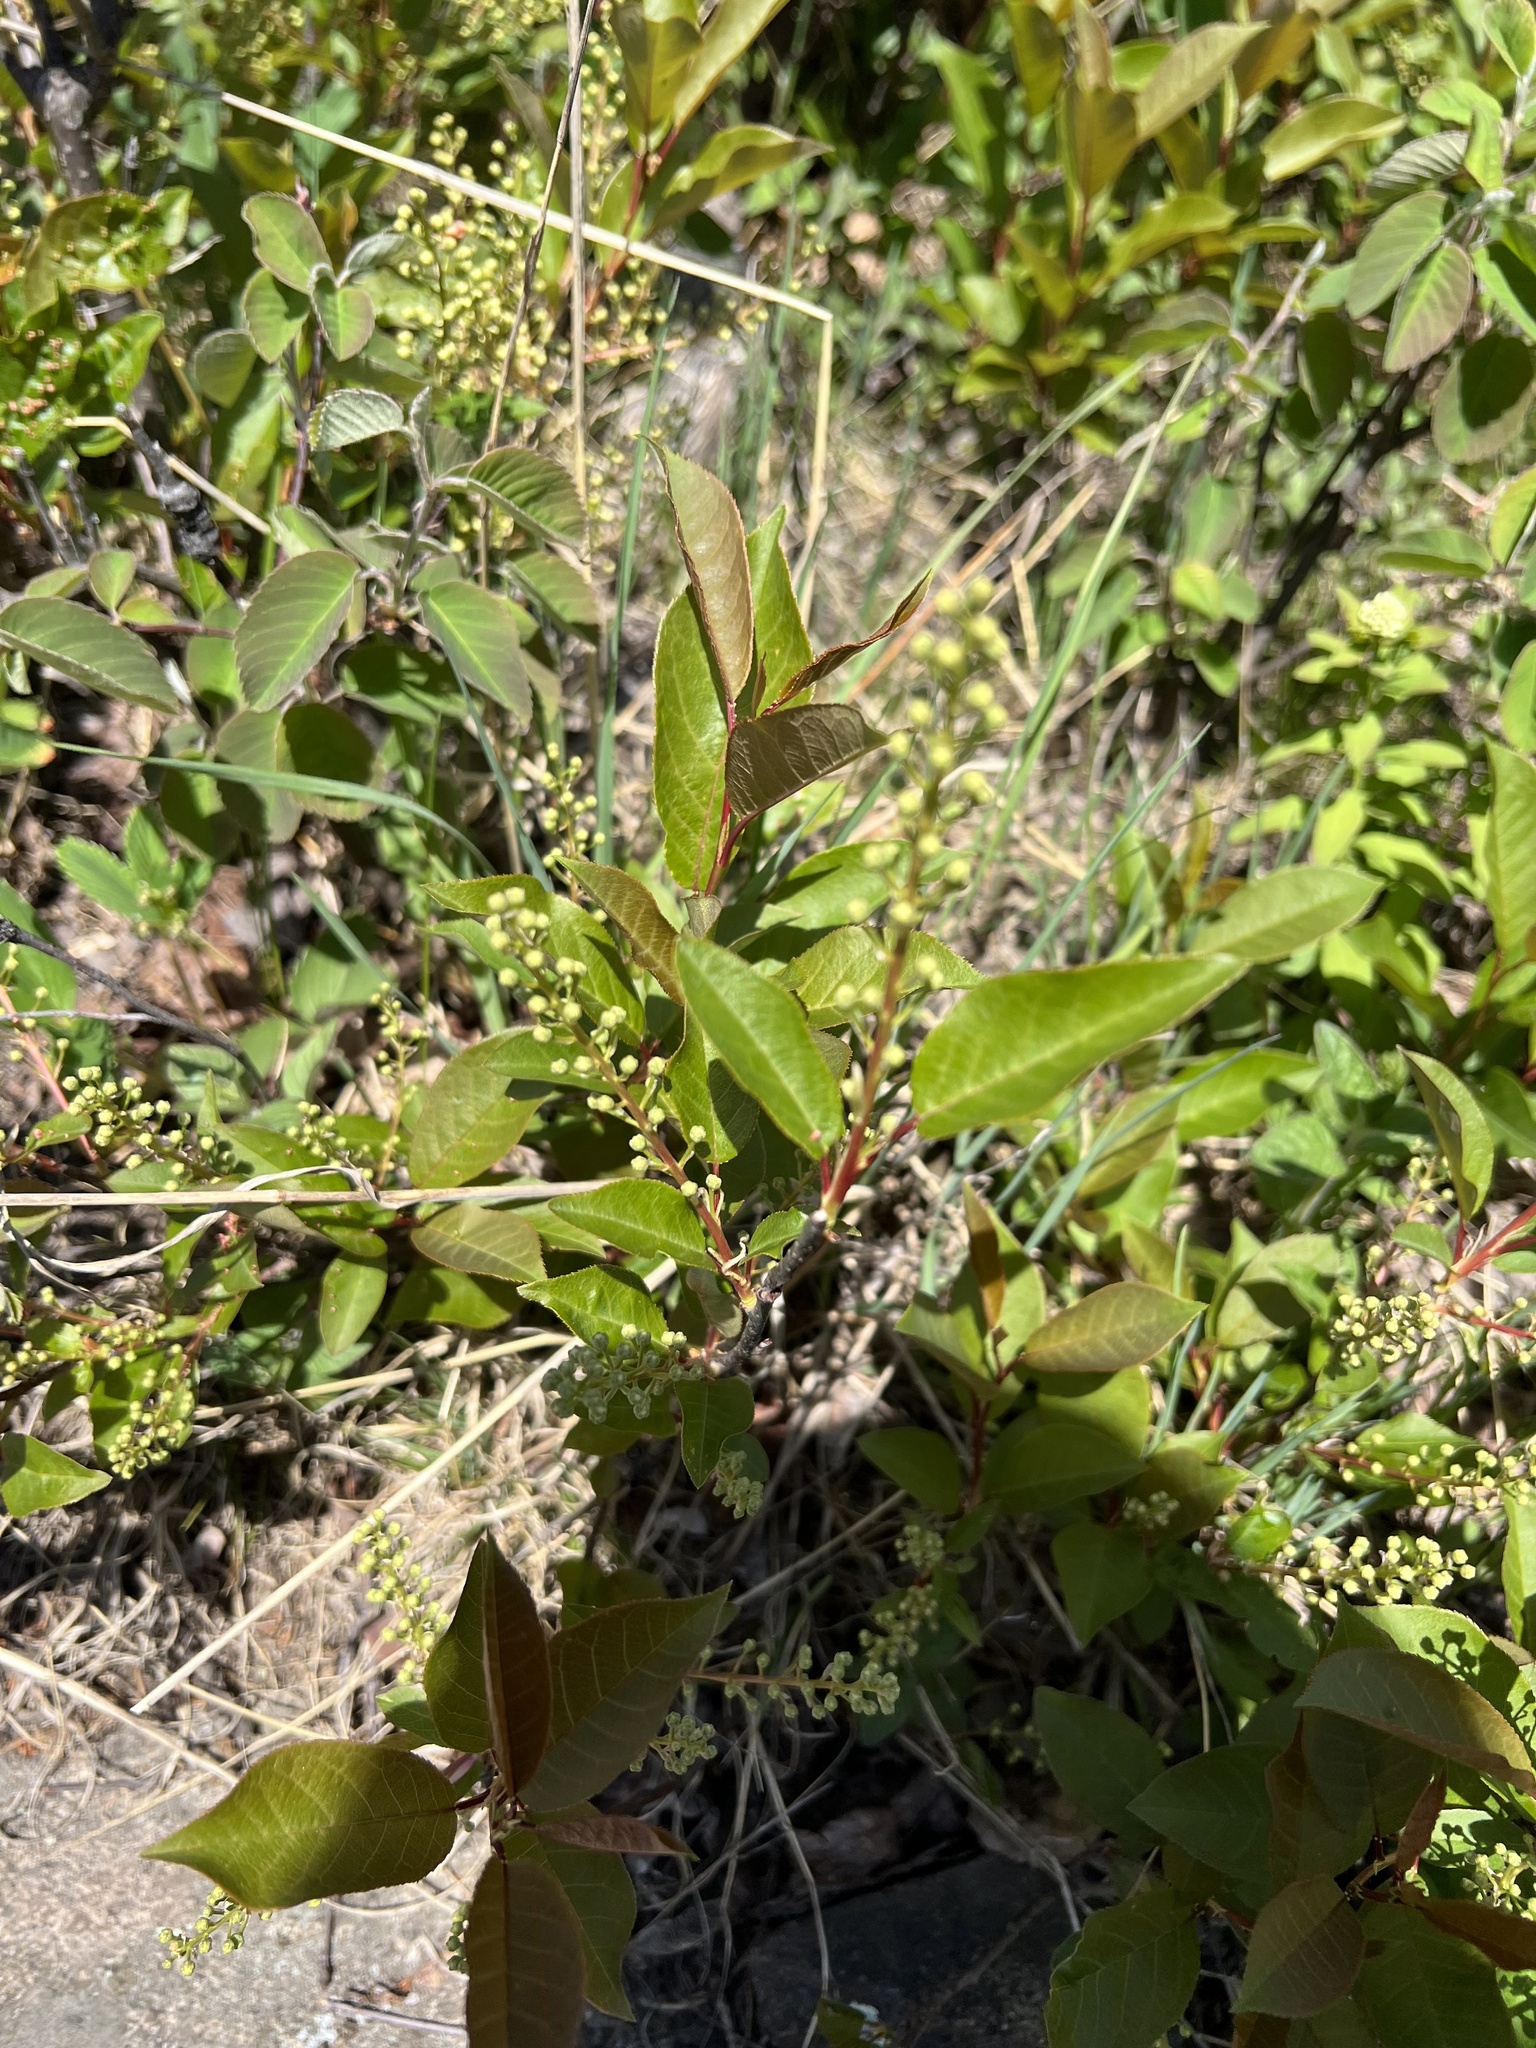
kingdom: Plantae
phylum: Tracheophyta
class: Magnoliopsida
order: Rosales
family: Rosaceae
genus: Prunus
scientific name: Prunus virginiana
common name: Chokecherry
